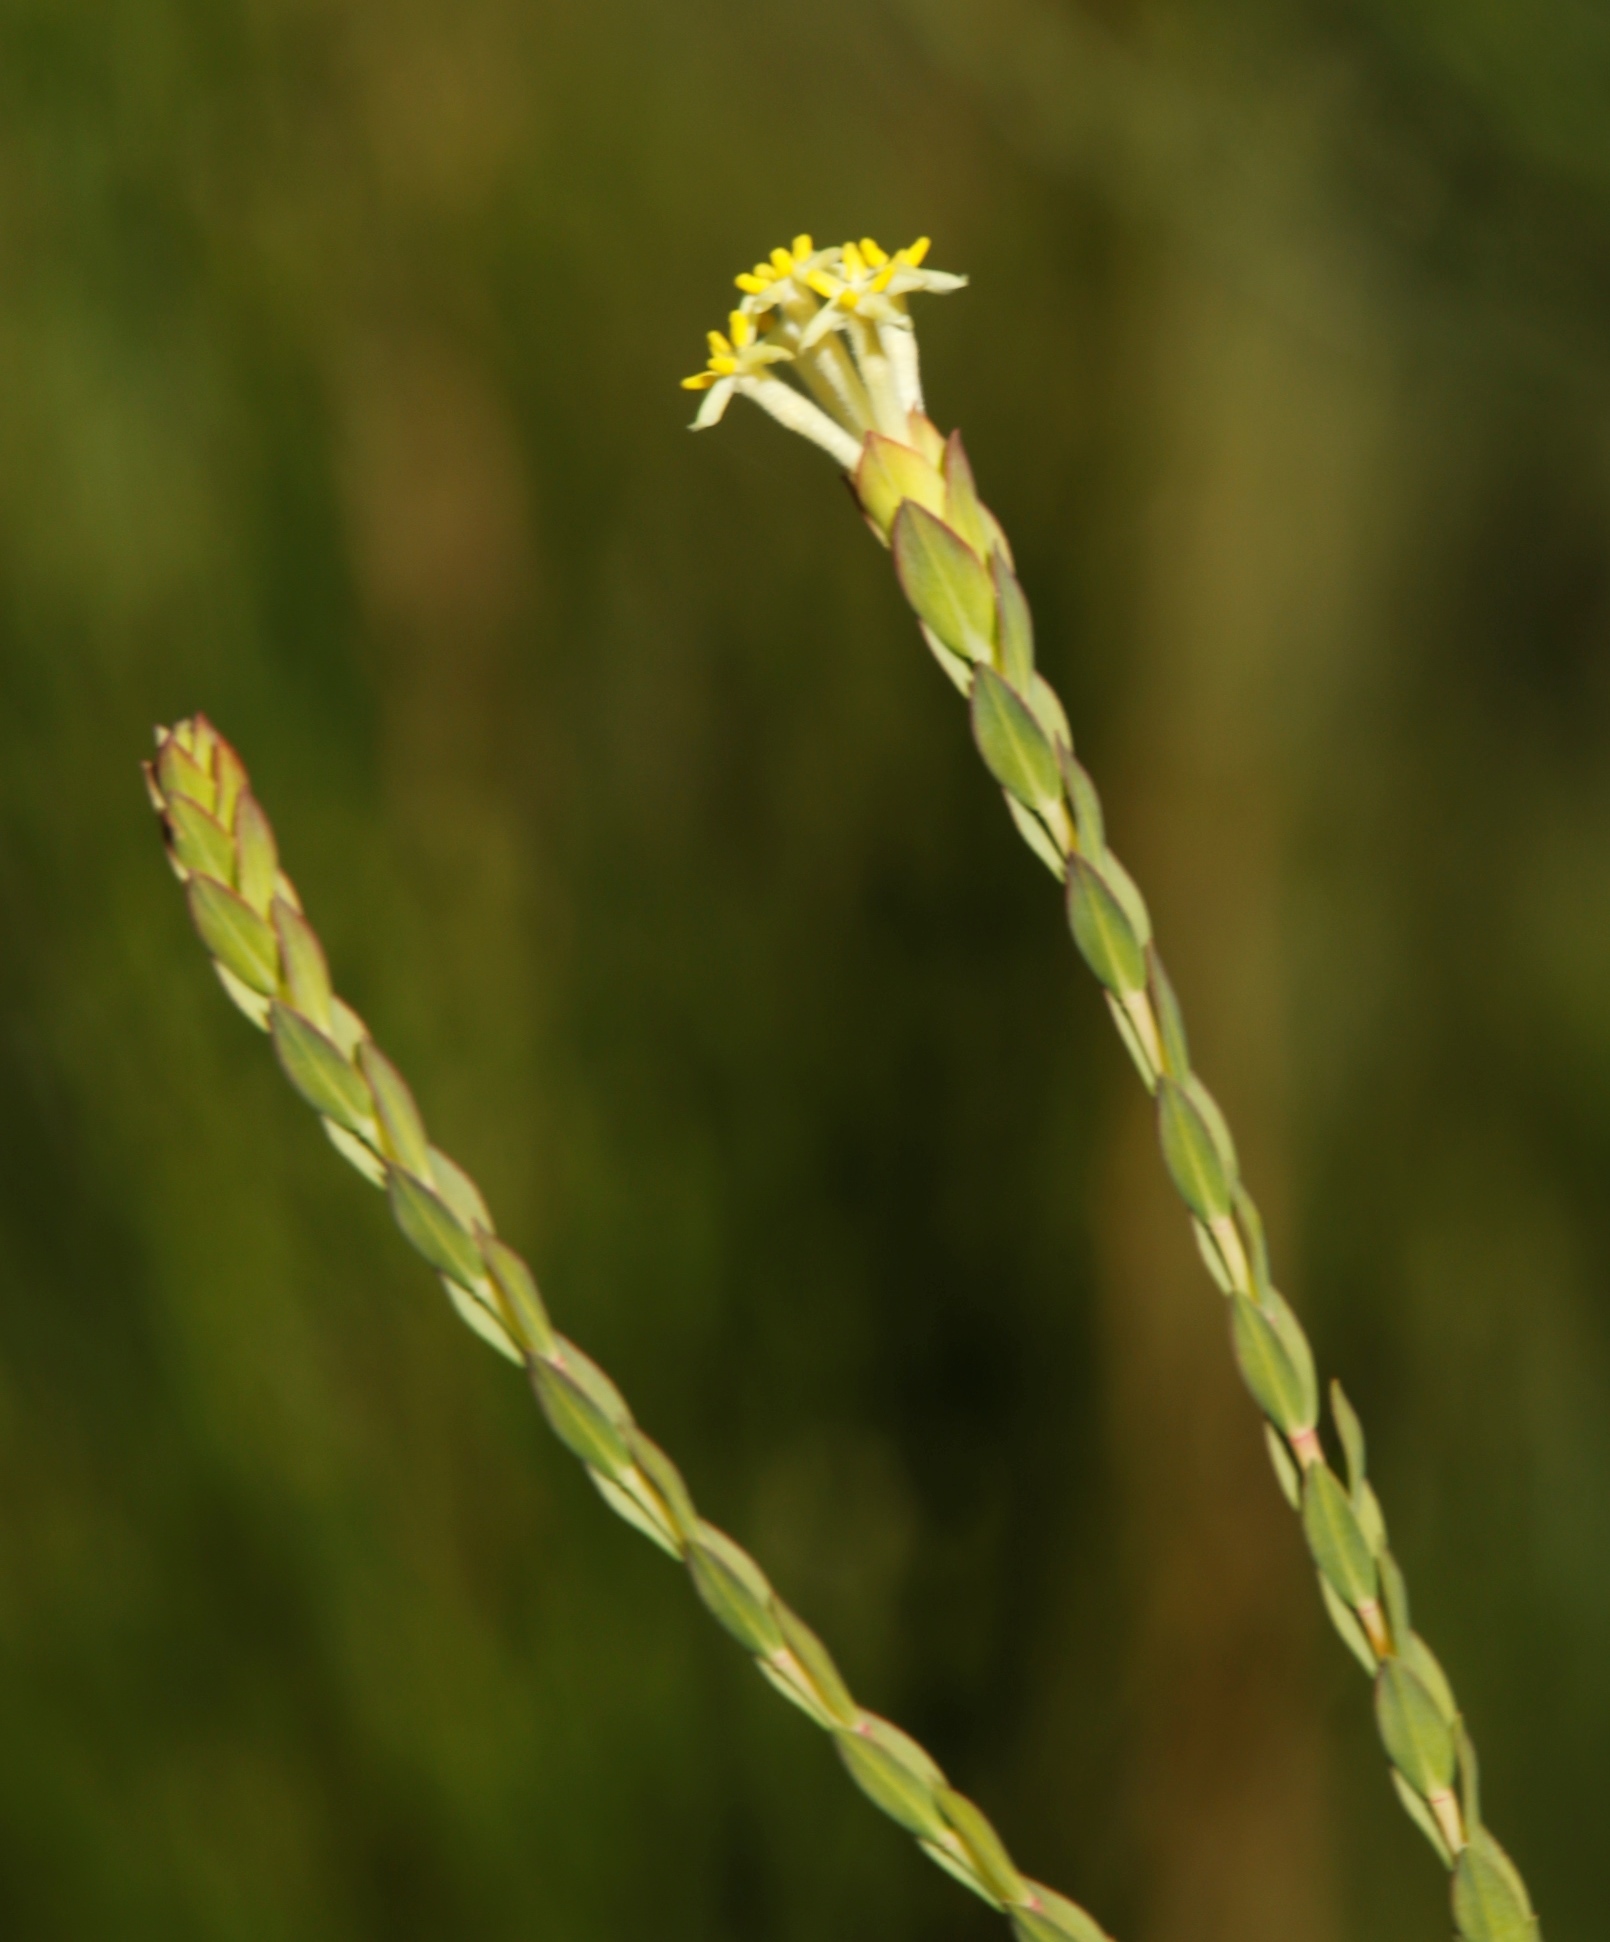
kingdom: Plantae
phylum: Tracheophyta
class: Magnoliopsida
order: Malvales
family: Thymelaeaceae
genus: Gnidia
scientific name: Gnidia oppositifolia
